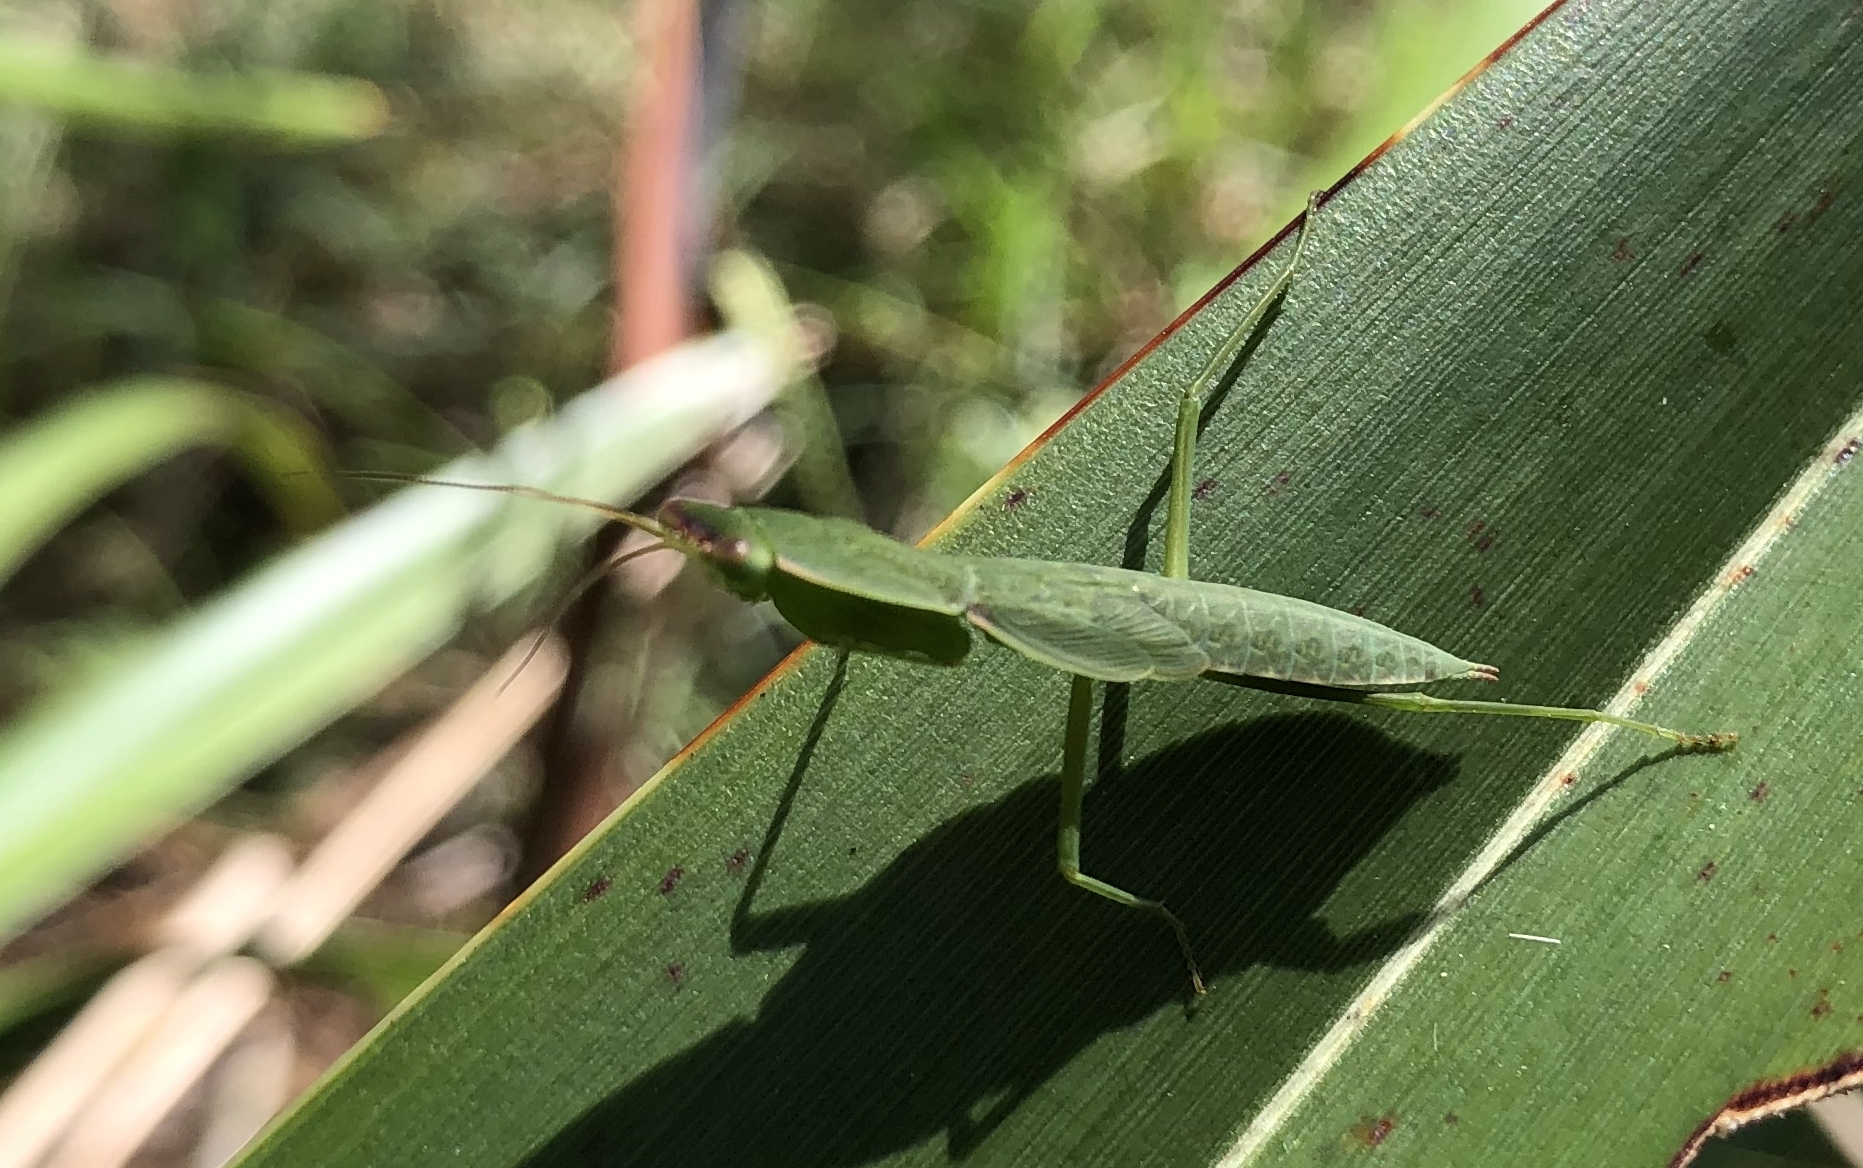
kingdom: Animalia
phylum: Arthropoda
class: Insecta
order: Mantodea
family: Mantidae
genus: Orthodera
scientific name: Orthodera novaezealandiae
